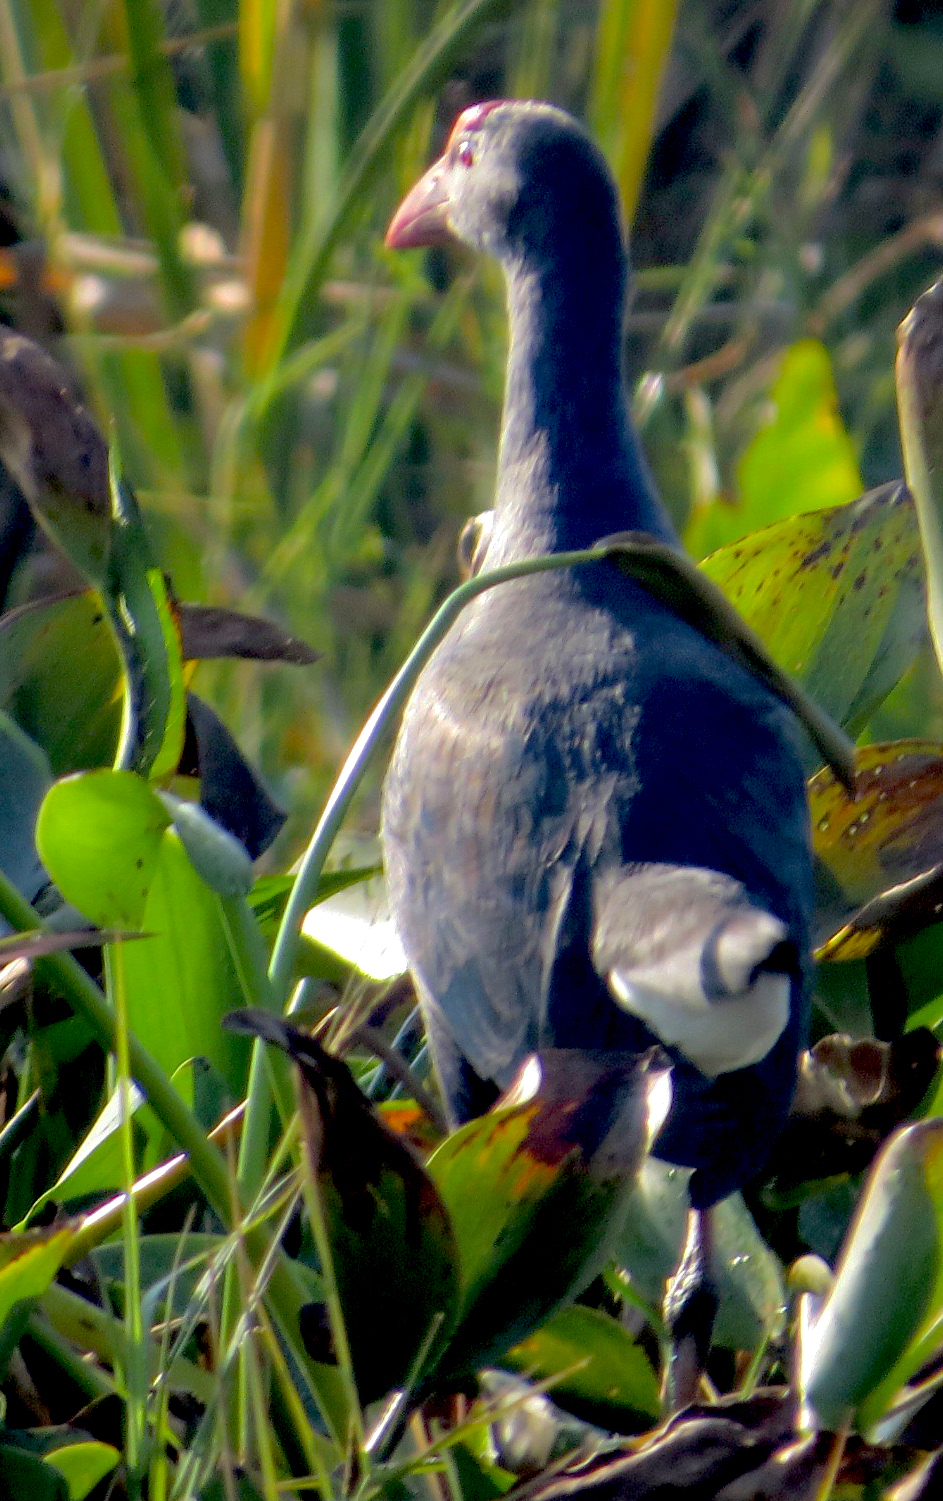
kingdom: Animalia
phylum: Chordata
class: Aves
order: Gruiformes
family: Rallidae
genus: Porphyrio
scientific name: Porphyrio porphyrio
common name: Purple swamphen
